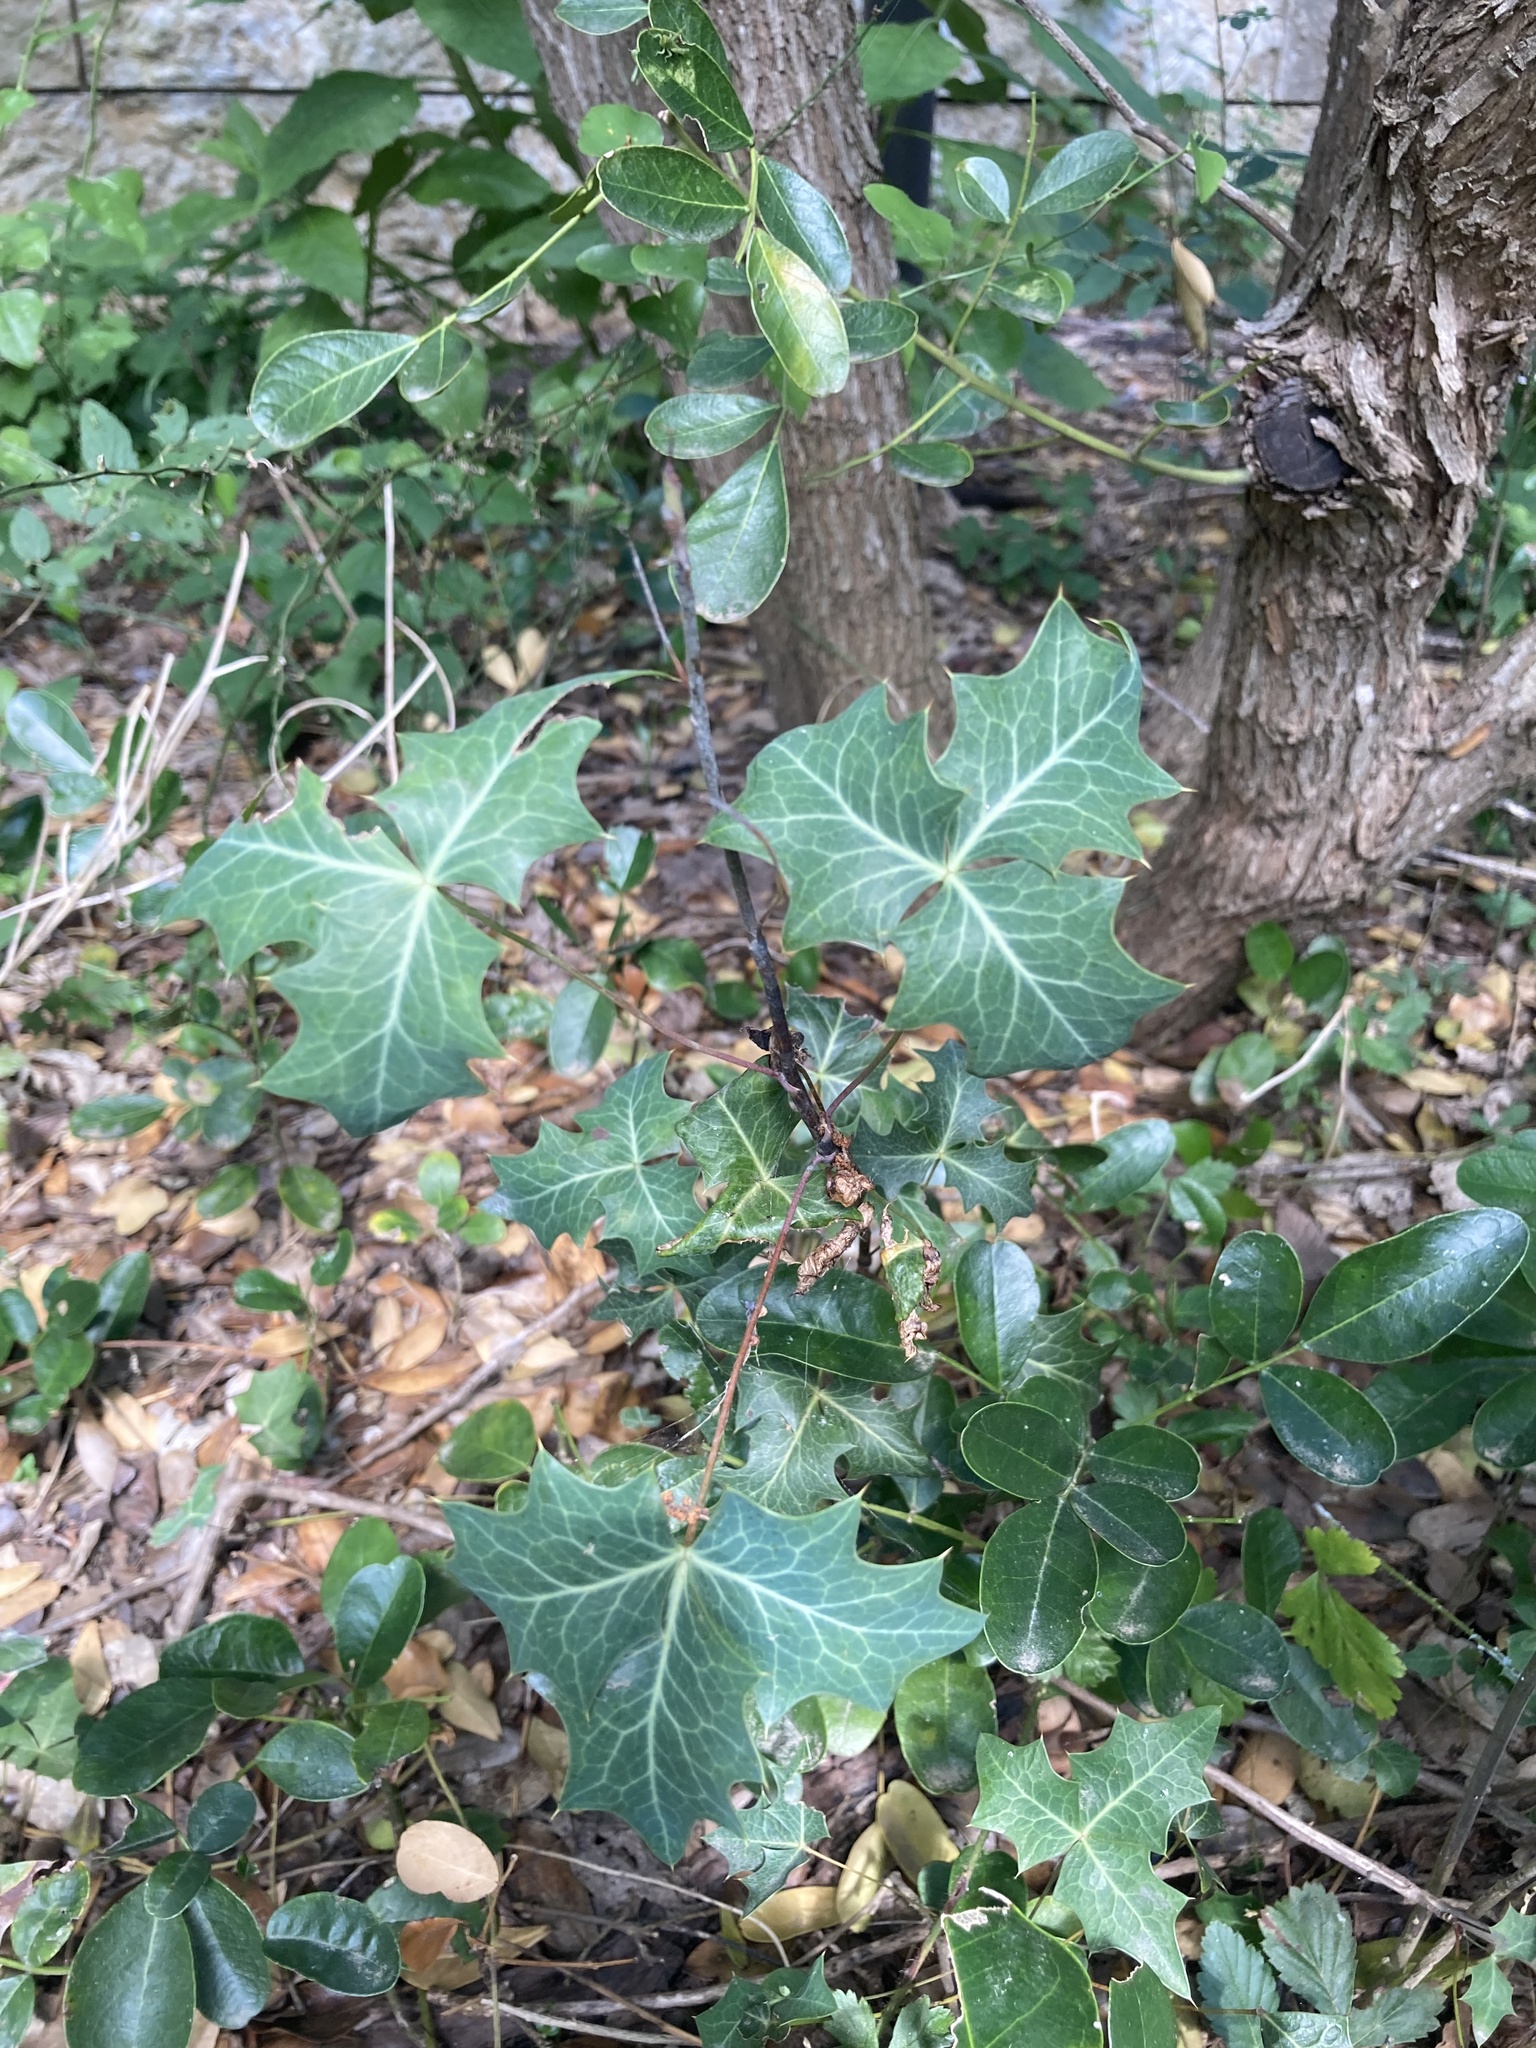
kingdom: Plantae
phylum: Tracheophyta
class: Magnoliopsida
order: Ranunculales
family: Berberidaceae
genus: Alloberberis
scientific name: Alloberberis trifoliolata
